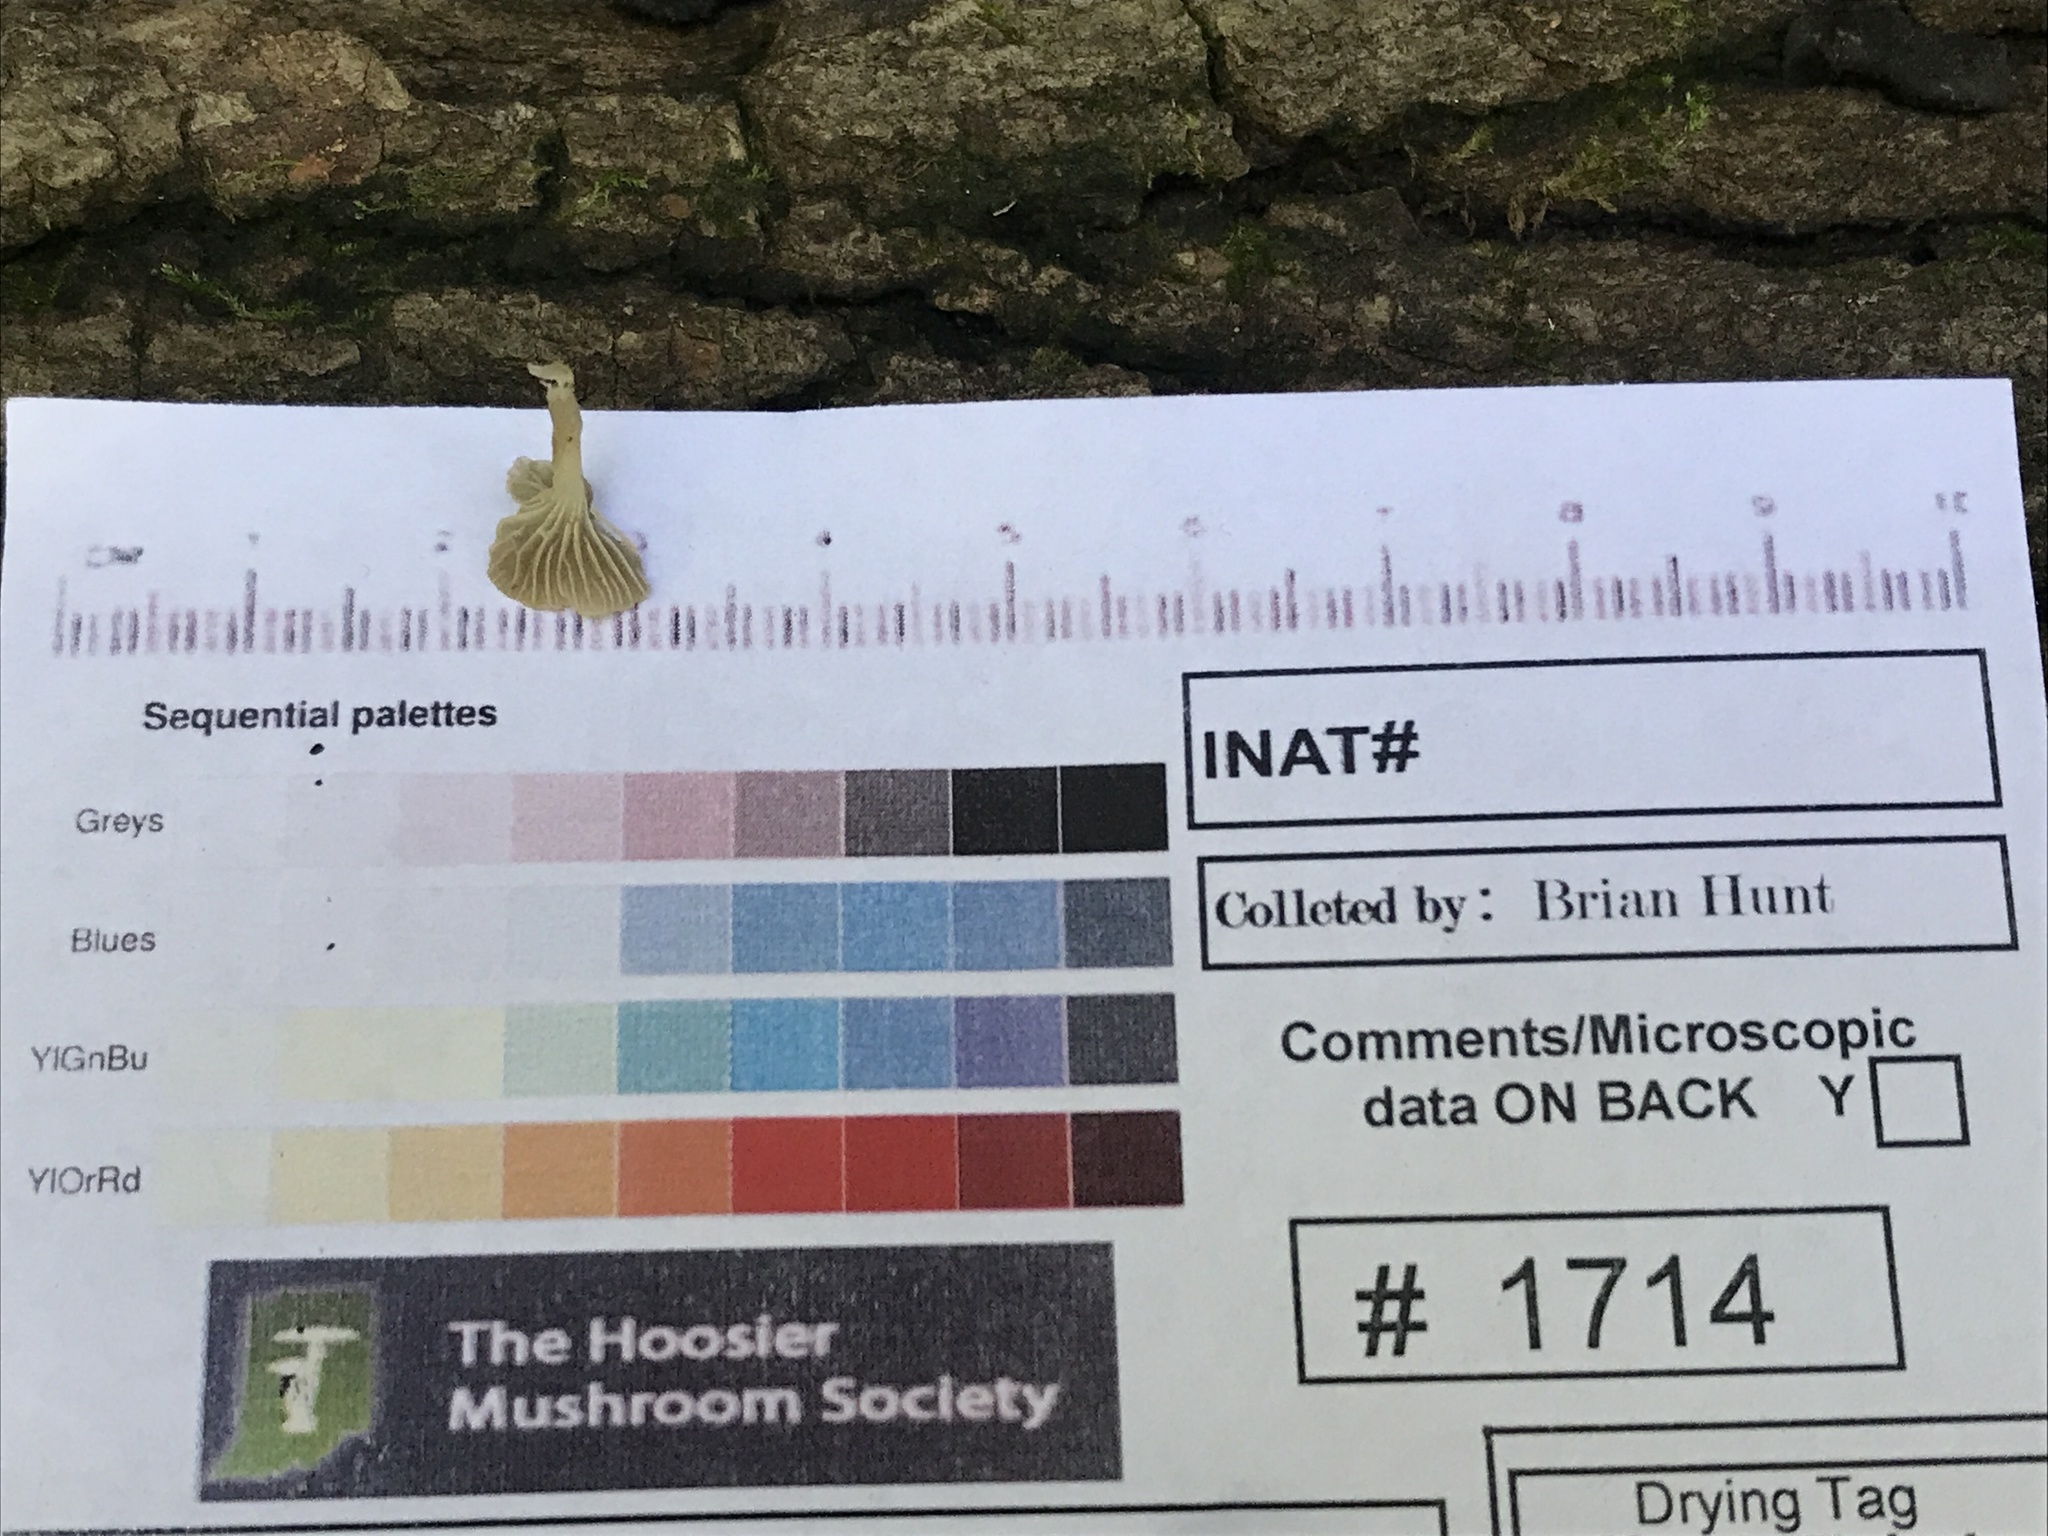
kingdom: Fungi
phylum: Basidiomycota
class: Agaricomycetes
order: Agaricales
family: Mycenaceae
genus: Hydropus
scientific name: Hydropus praedecurrens
